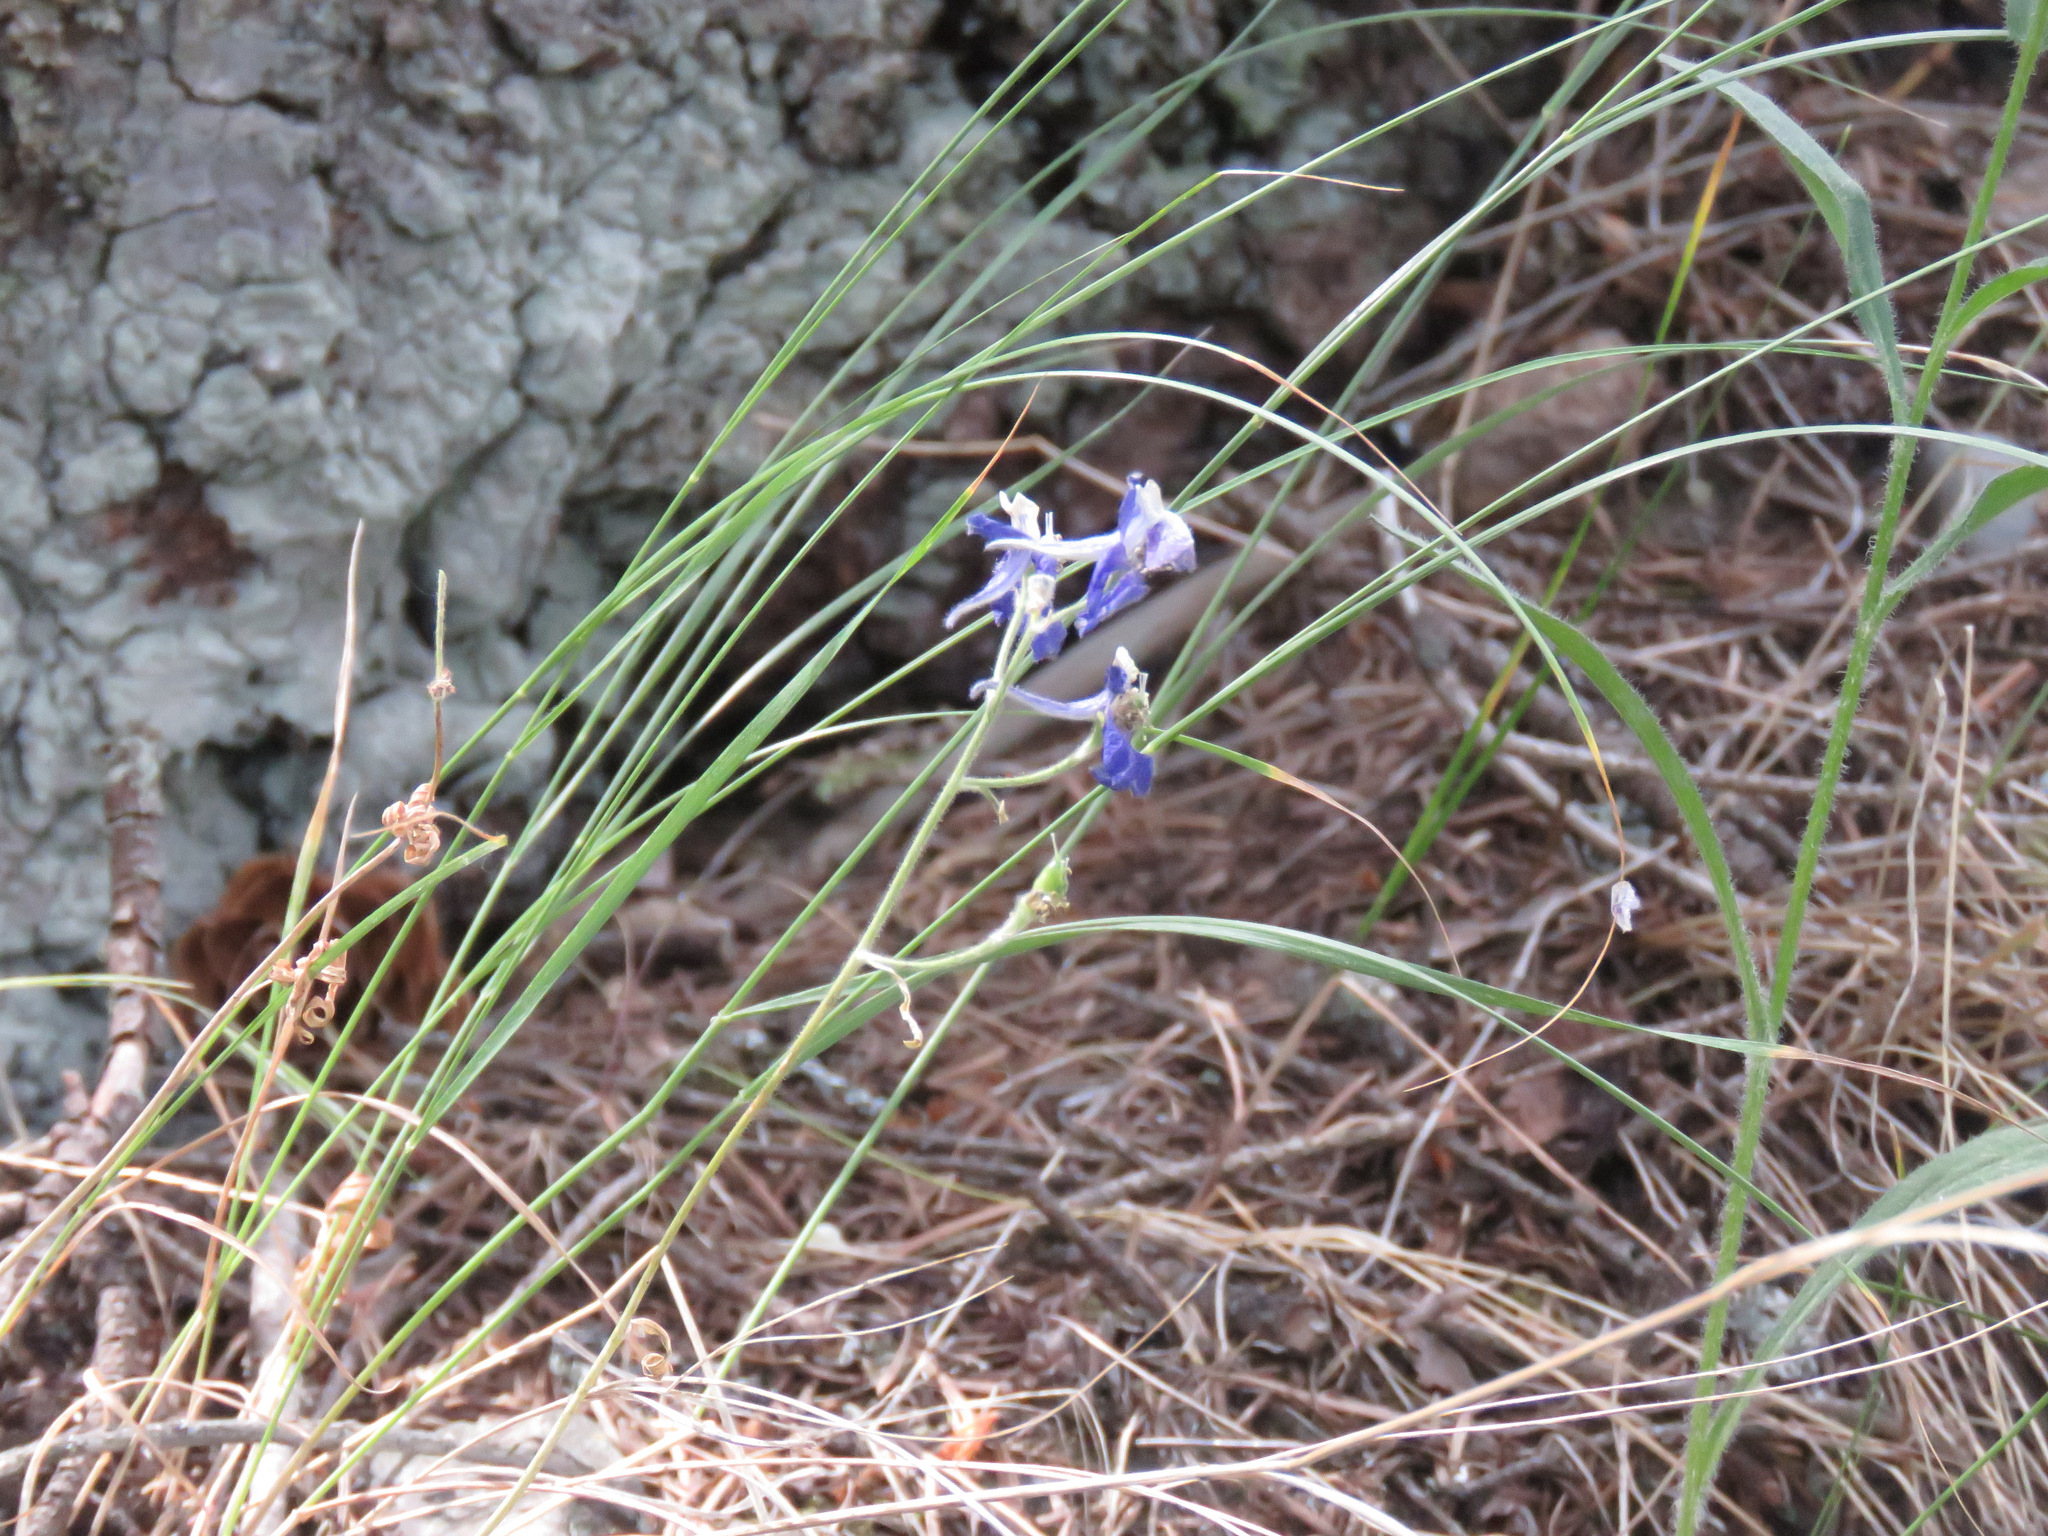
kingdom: Plantae
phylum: Tracheophyta
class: Magnoliopsida
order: Ranunculales
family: Ranunculaceae
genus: Delphinium
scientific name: Delphinium nuttallianum
